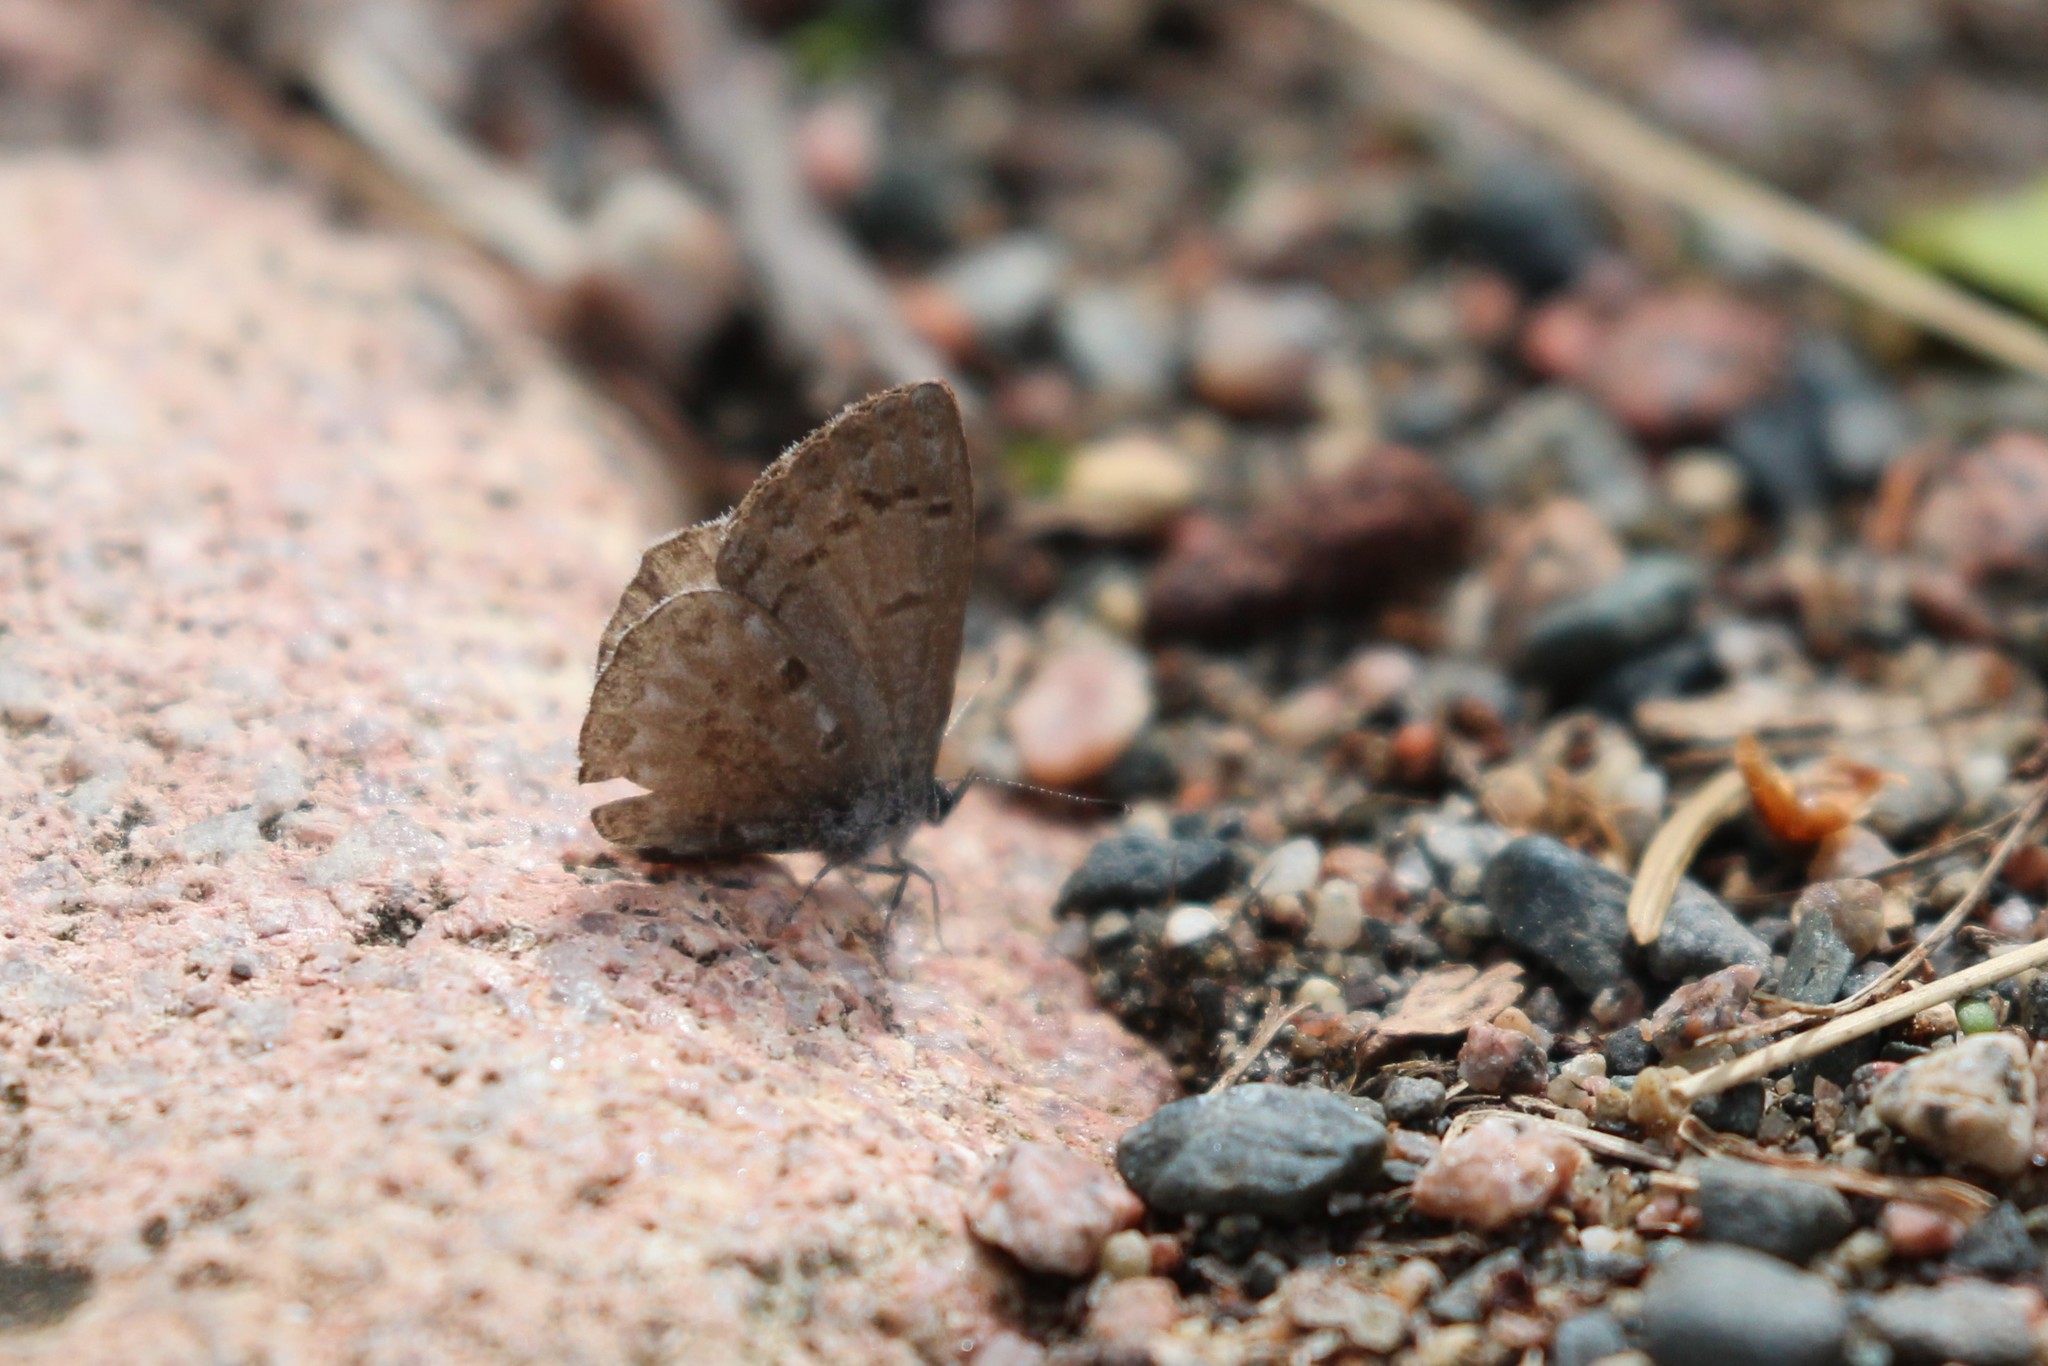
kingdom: Animalia
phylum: Arthropoda
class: Insecta
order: Lepidoptera
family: Lycaenidae
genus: Celastrina
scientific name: Celastrina lucia
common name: Lucia azure
